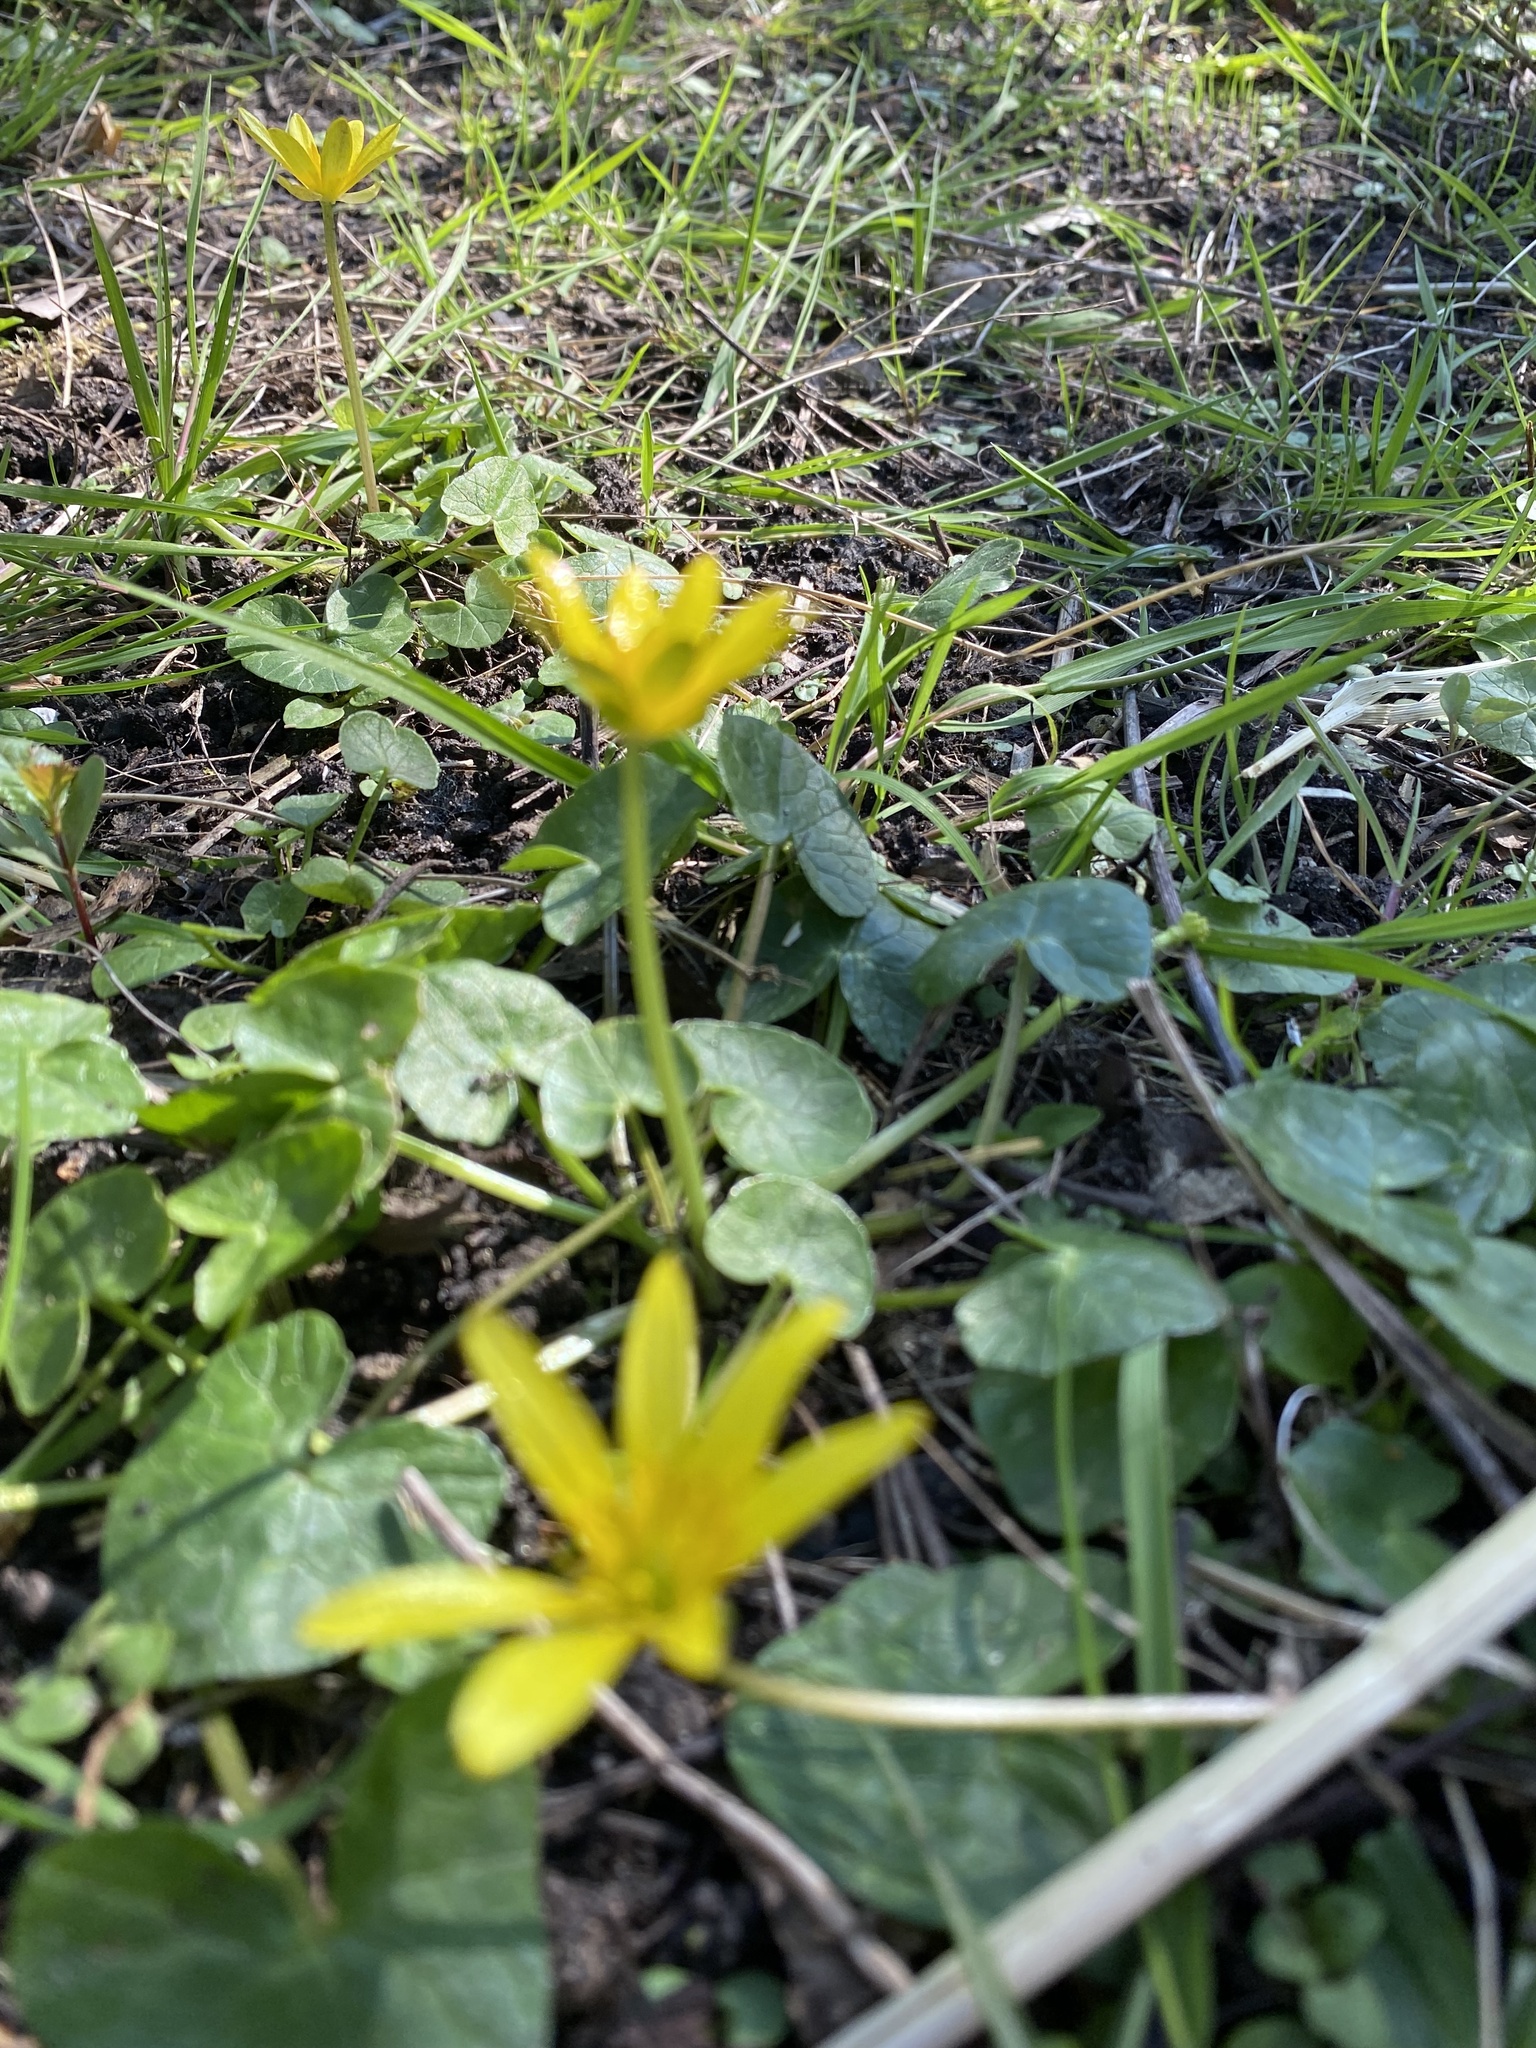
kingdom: Plantae
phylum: Tracheophyta
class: Magnoliopsida
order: Ranunculales
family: Ranunculaceae
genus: Ficaria
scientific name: Ficaria verna
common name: Lesser celandine
